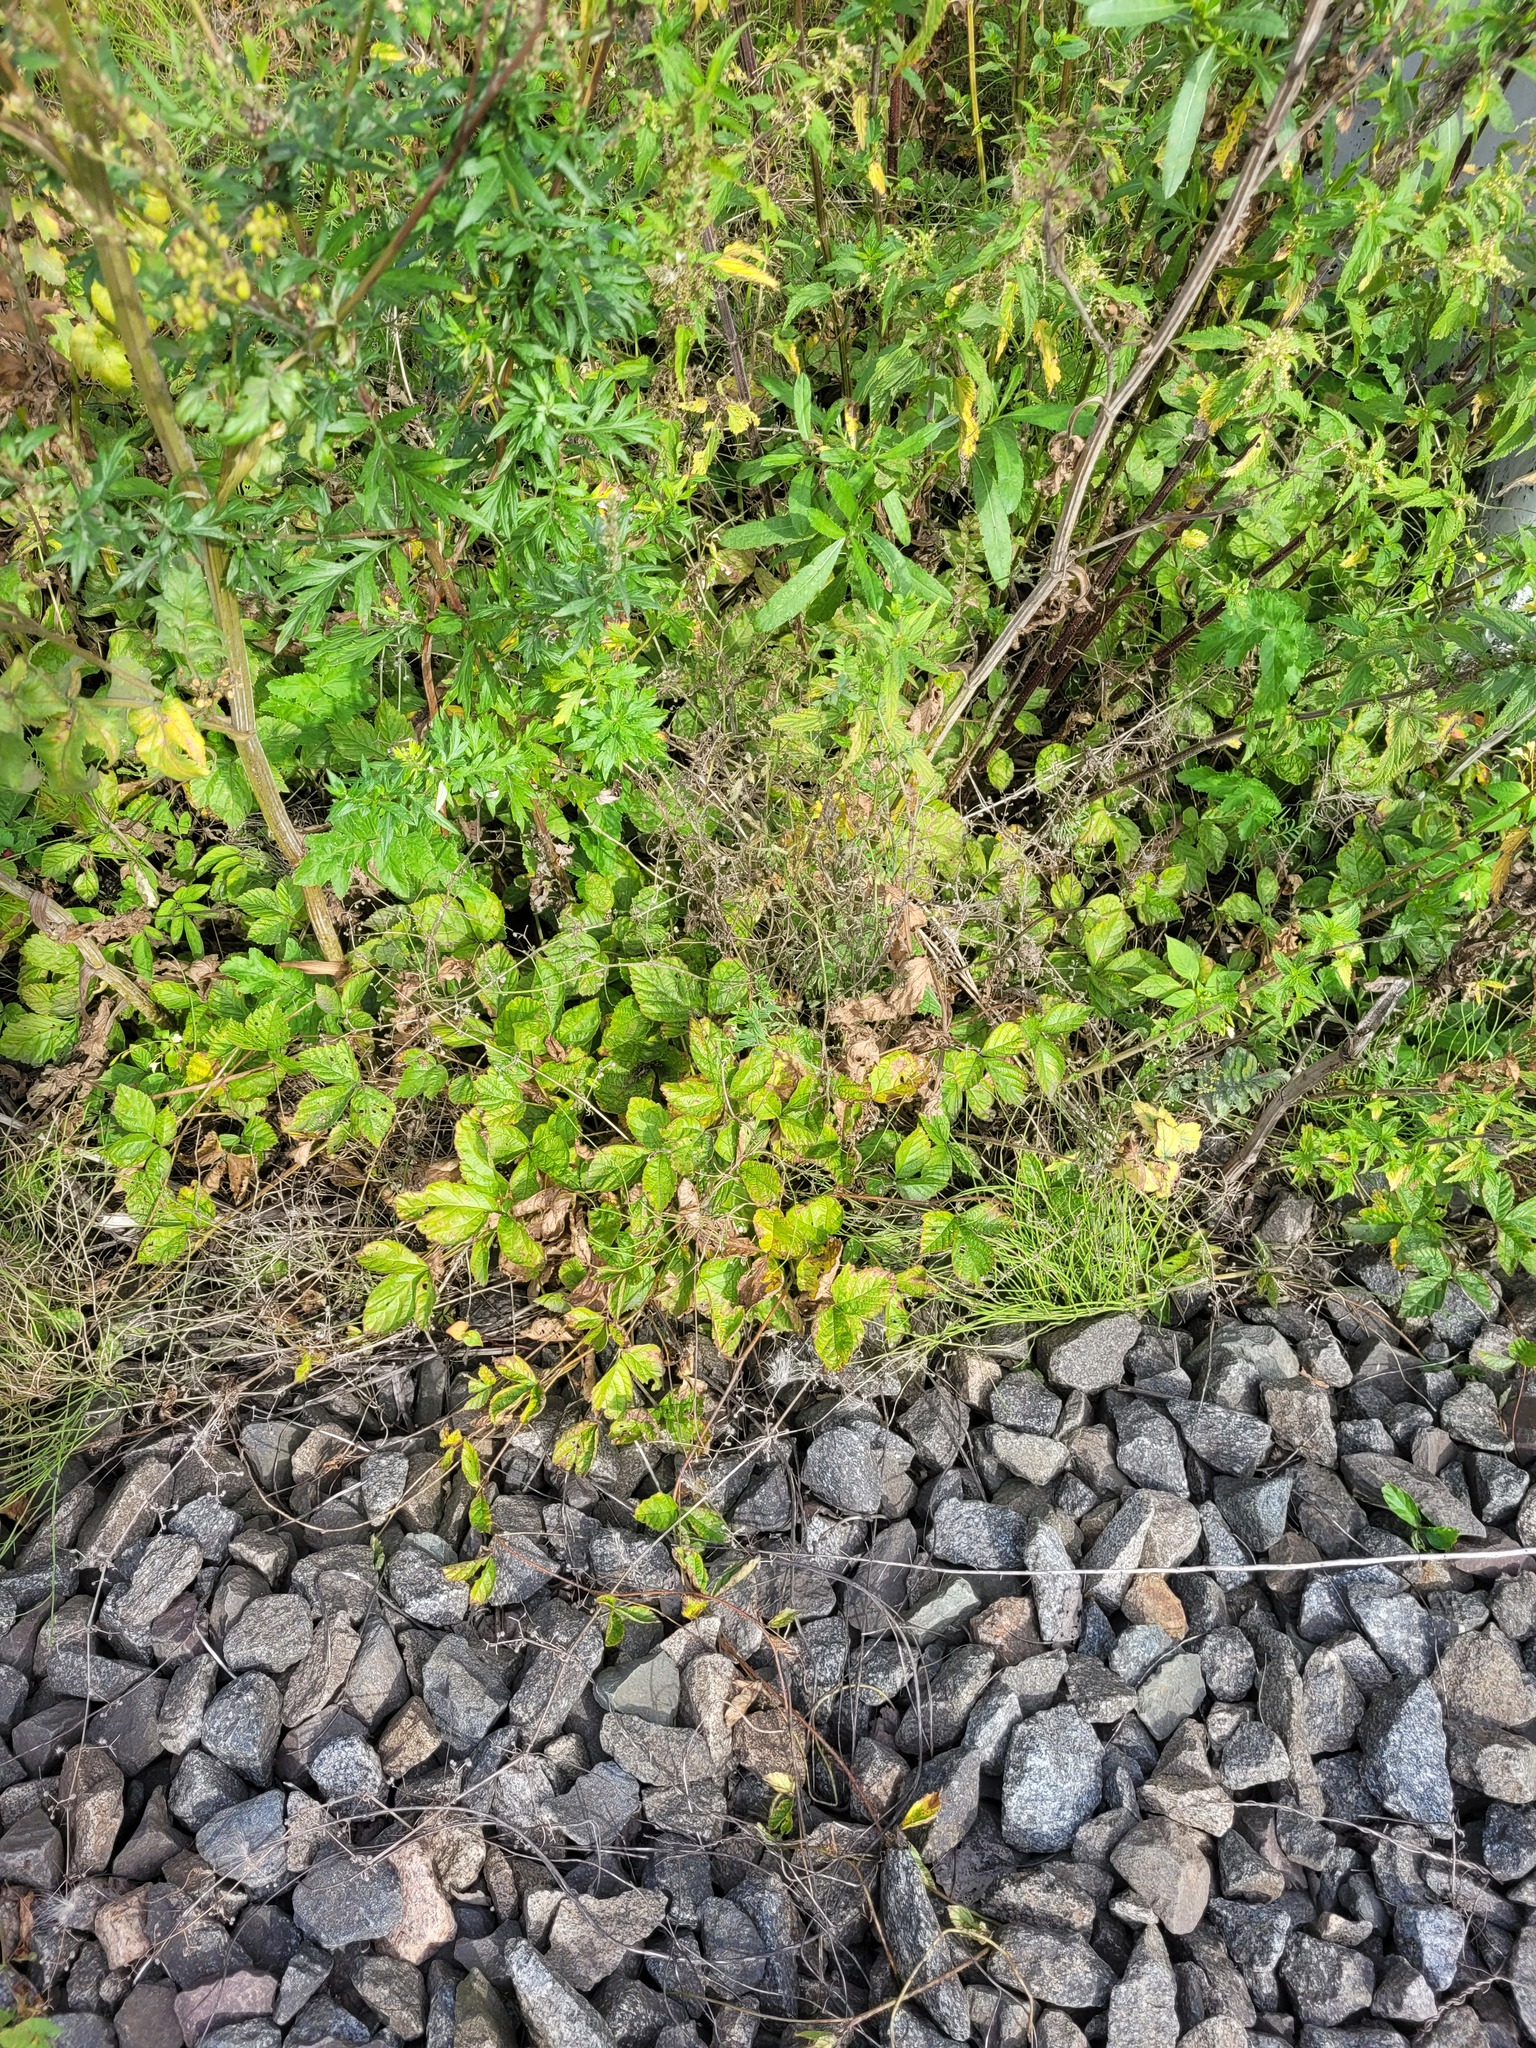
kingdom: Plantae
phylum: Tracheophyta
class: Magnoliopsida
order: Rosales
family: Rosaceae
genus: Rubus
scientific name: Rubus saxatilis
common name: Stone bramble
